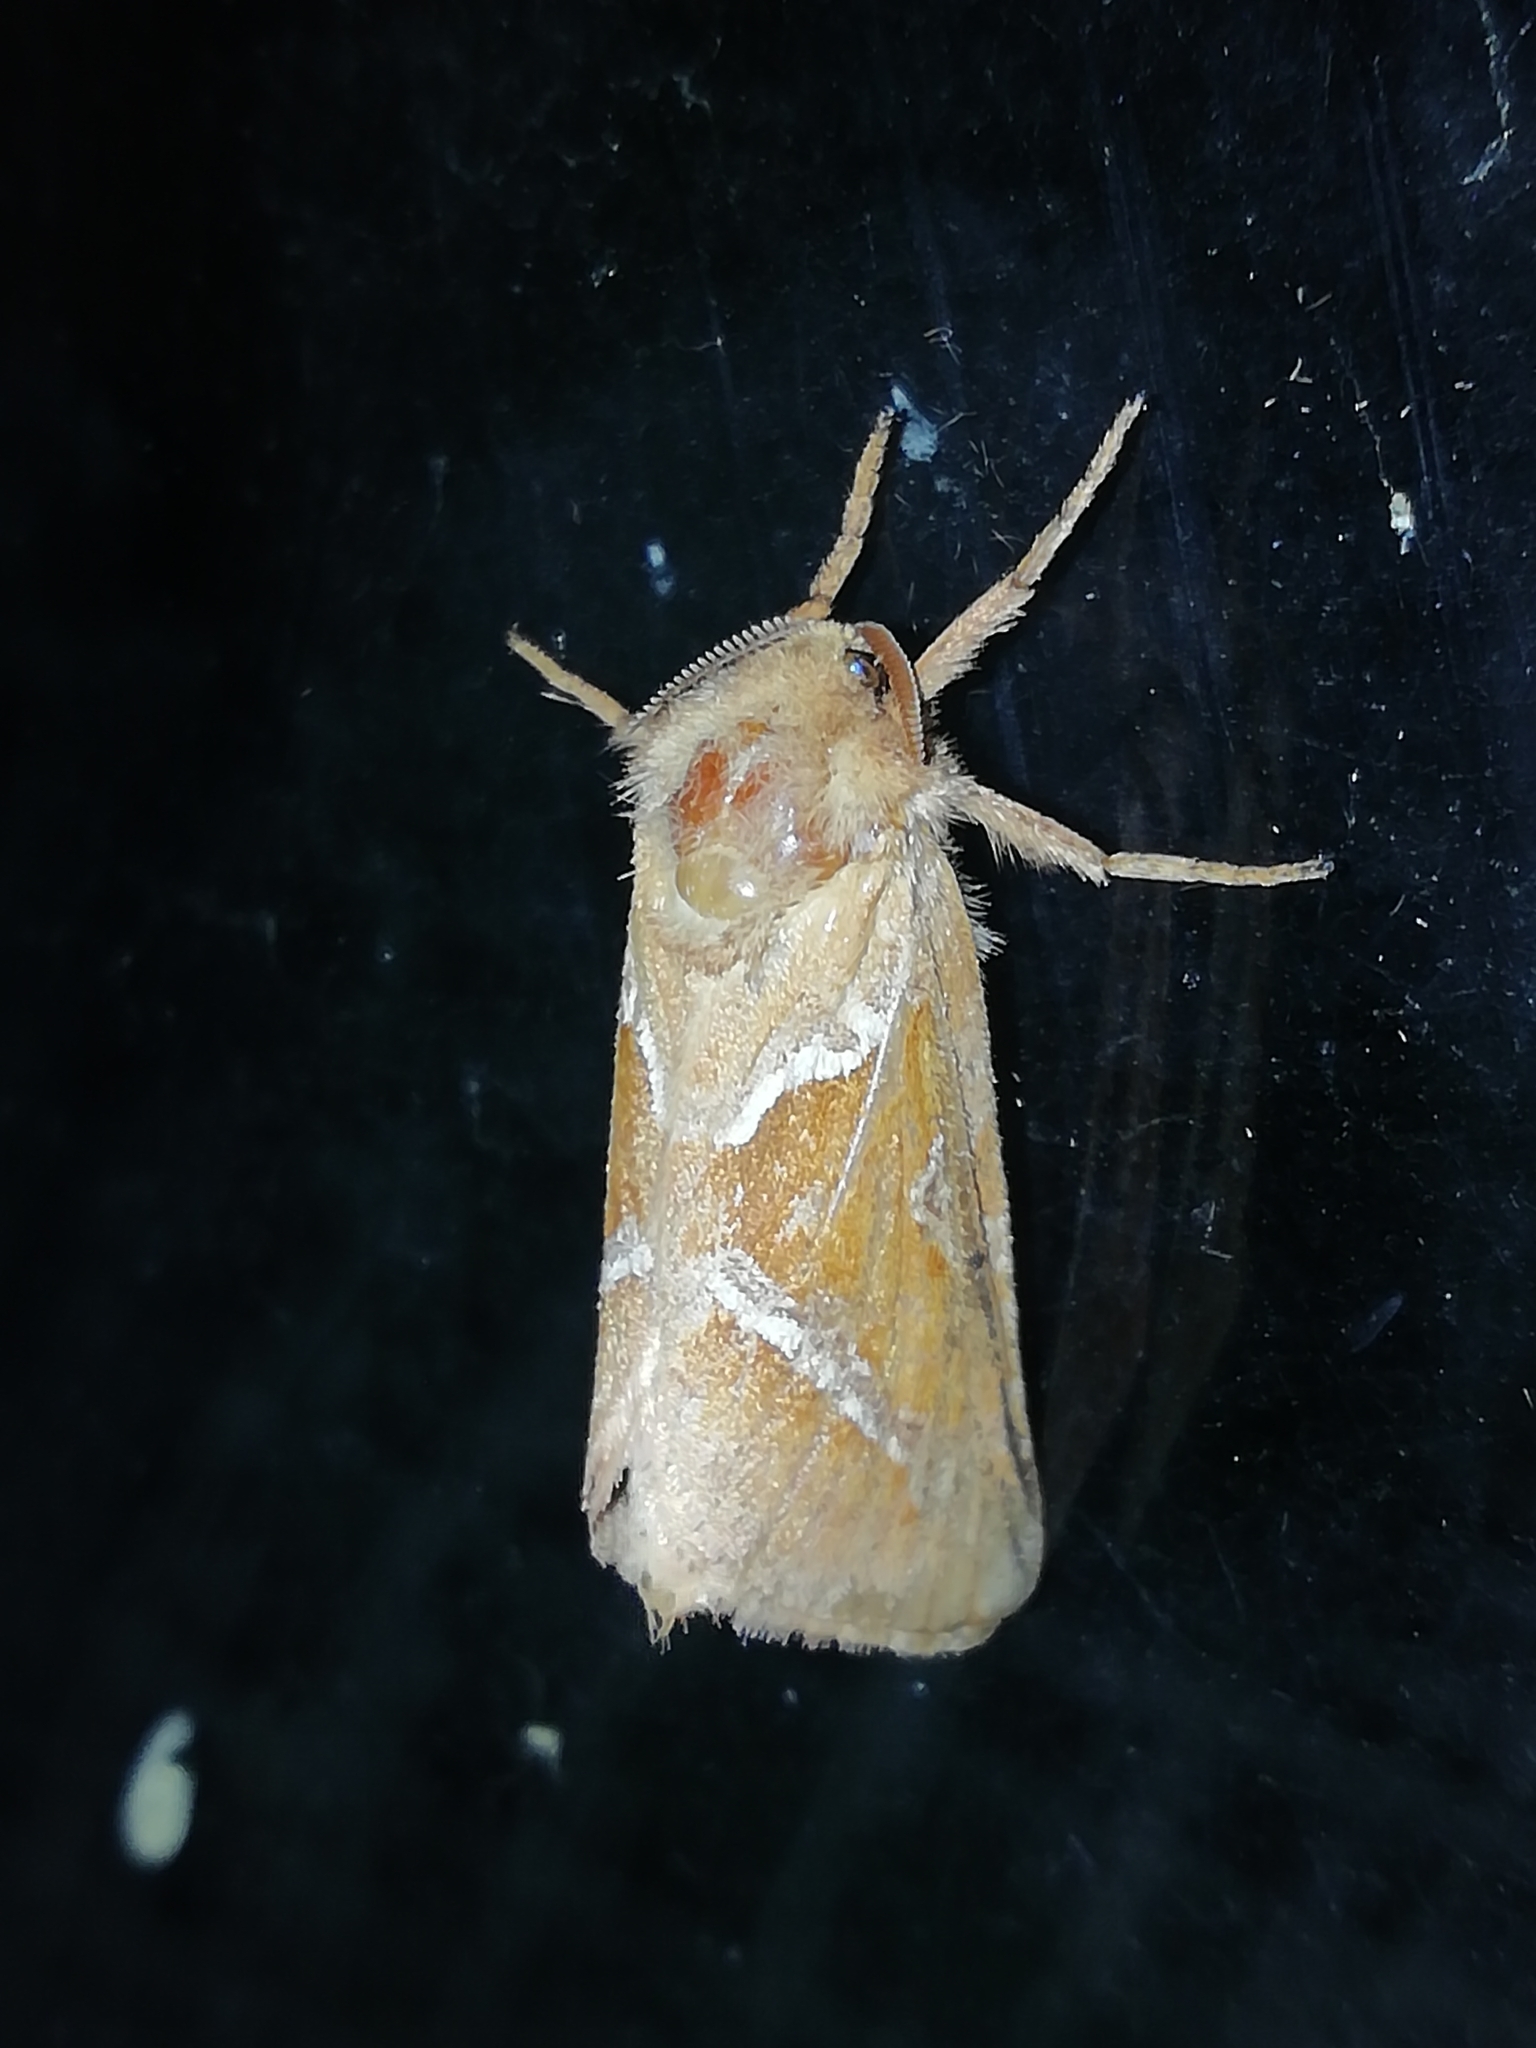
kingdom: Animalia
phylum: Arthropoda
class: Insecta
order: Lepidoptera
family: Hepialidae
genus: Triodia
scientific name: Triodia sylvina
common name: Orange swift
